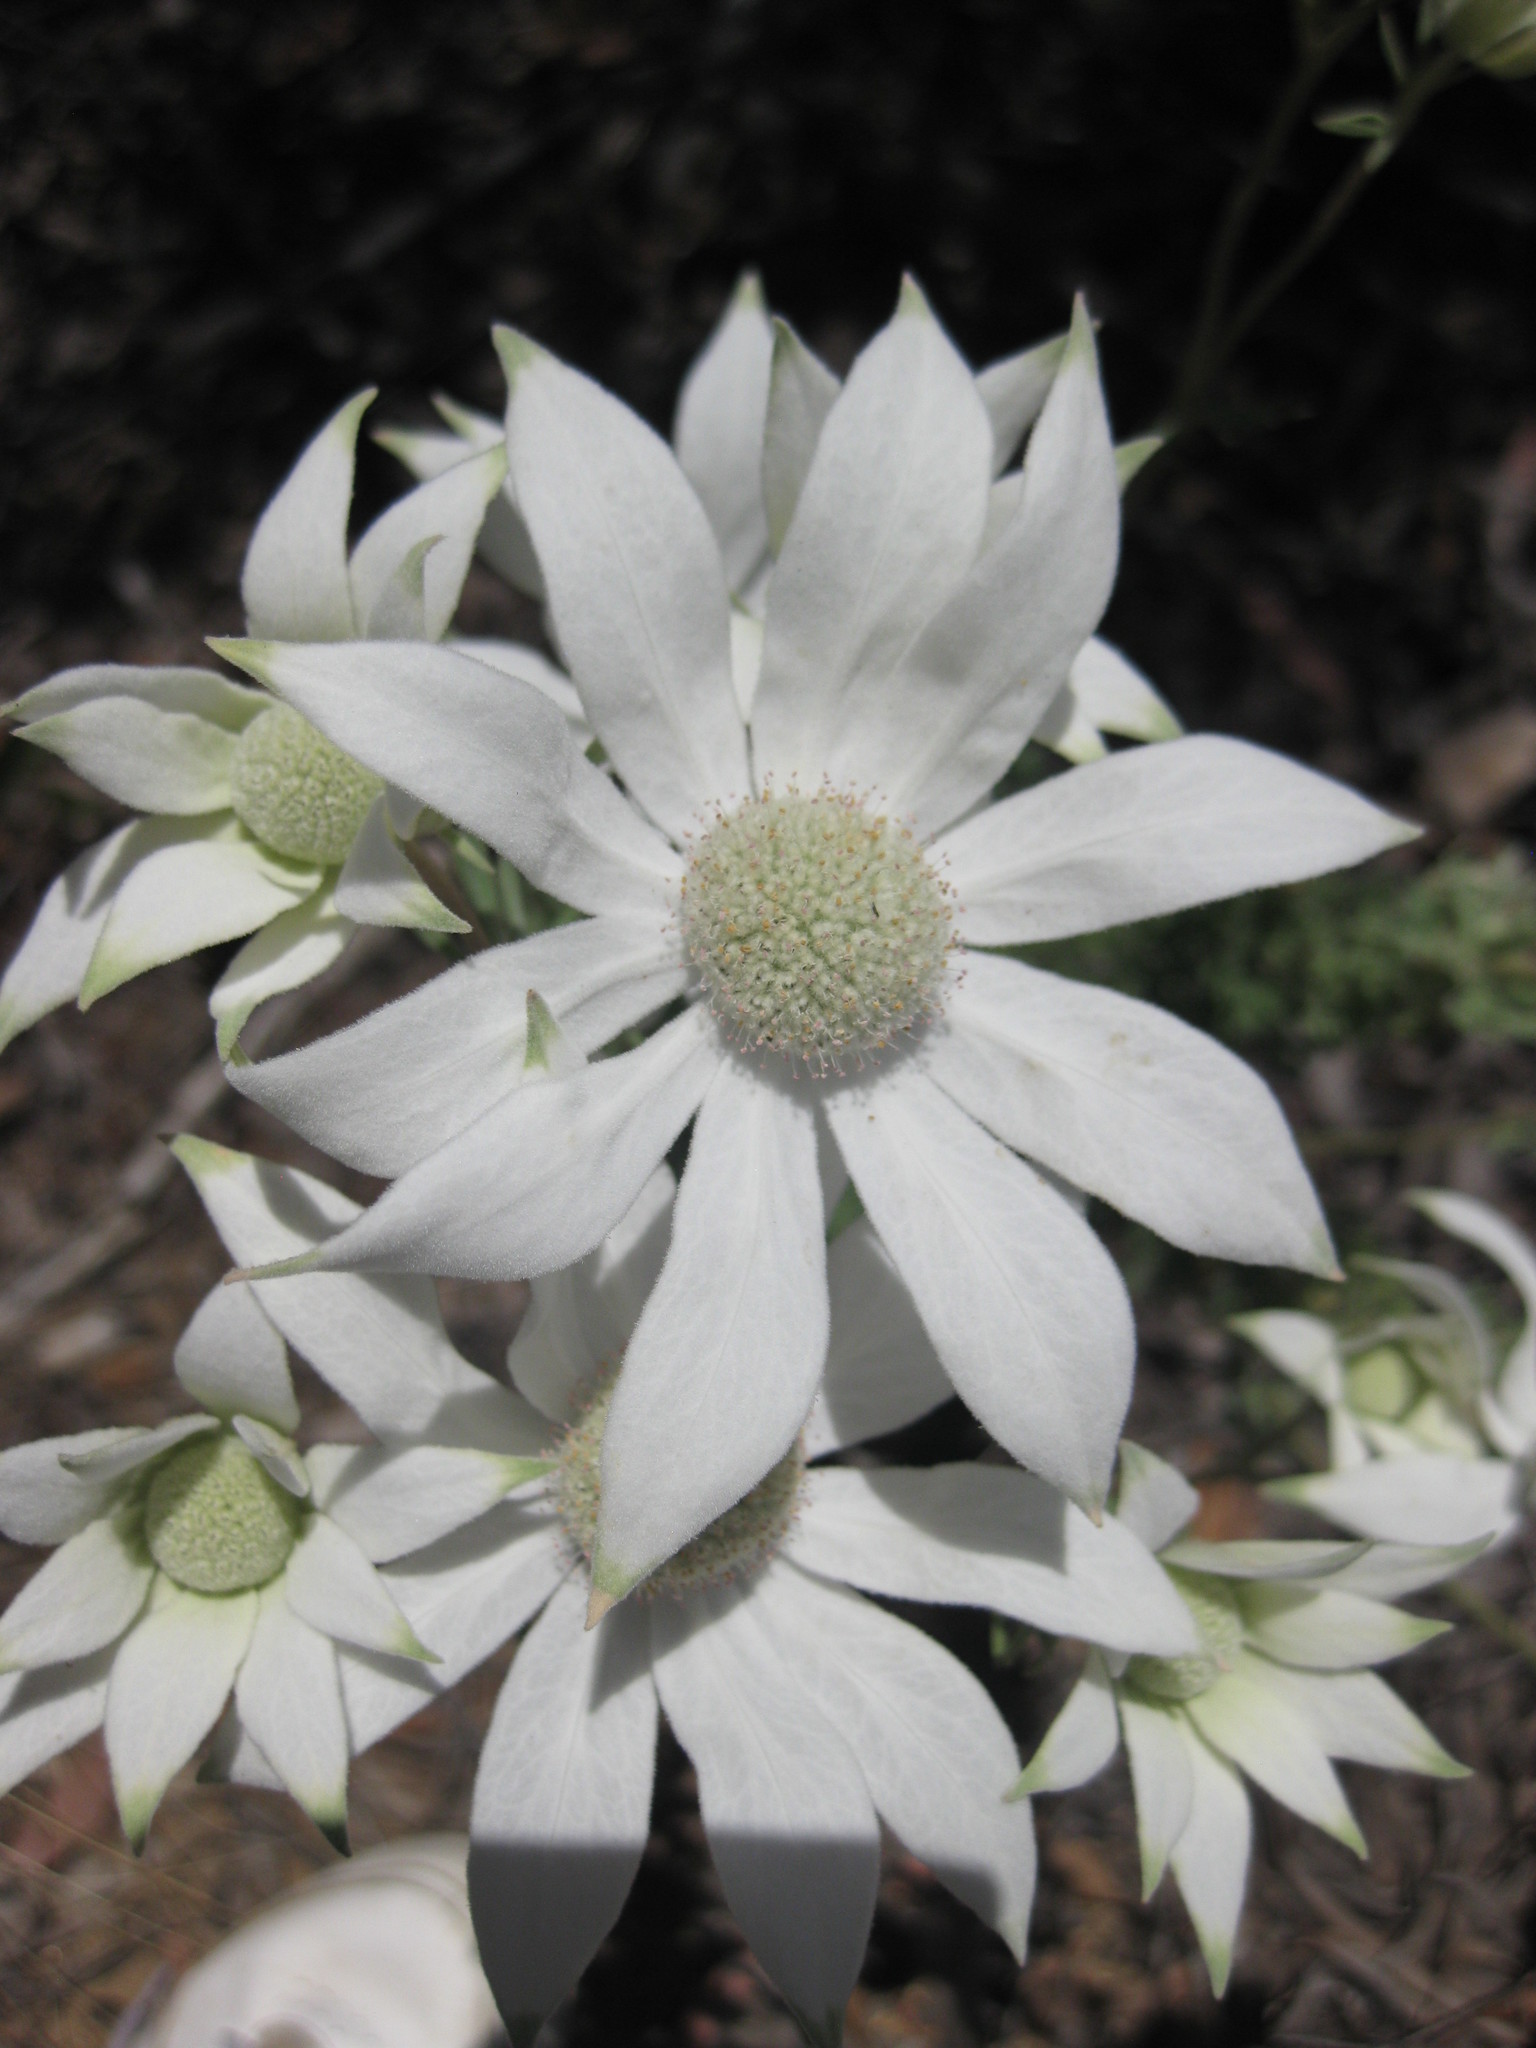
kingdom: Plantae
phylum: Tracheophyta
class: Magnoliopsida
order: Apiales
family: Apiaceae
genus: Actinotus
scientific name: Actinotus helianthi
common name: Flannel-flower
